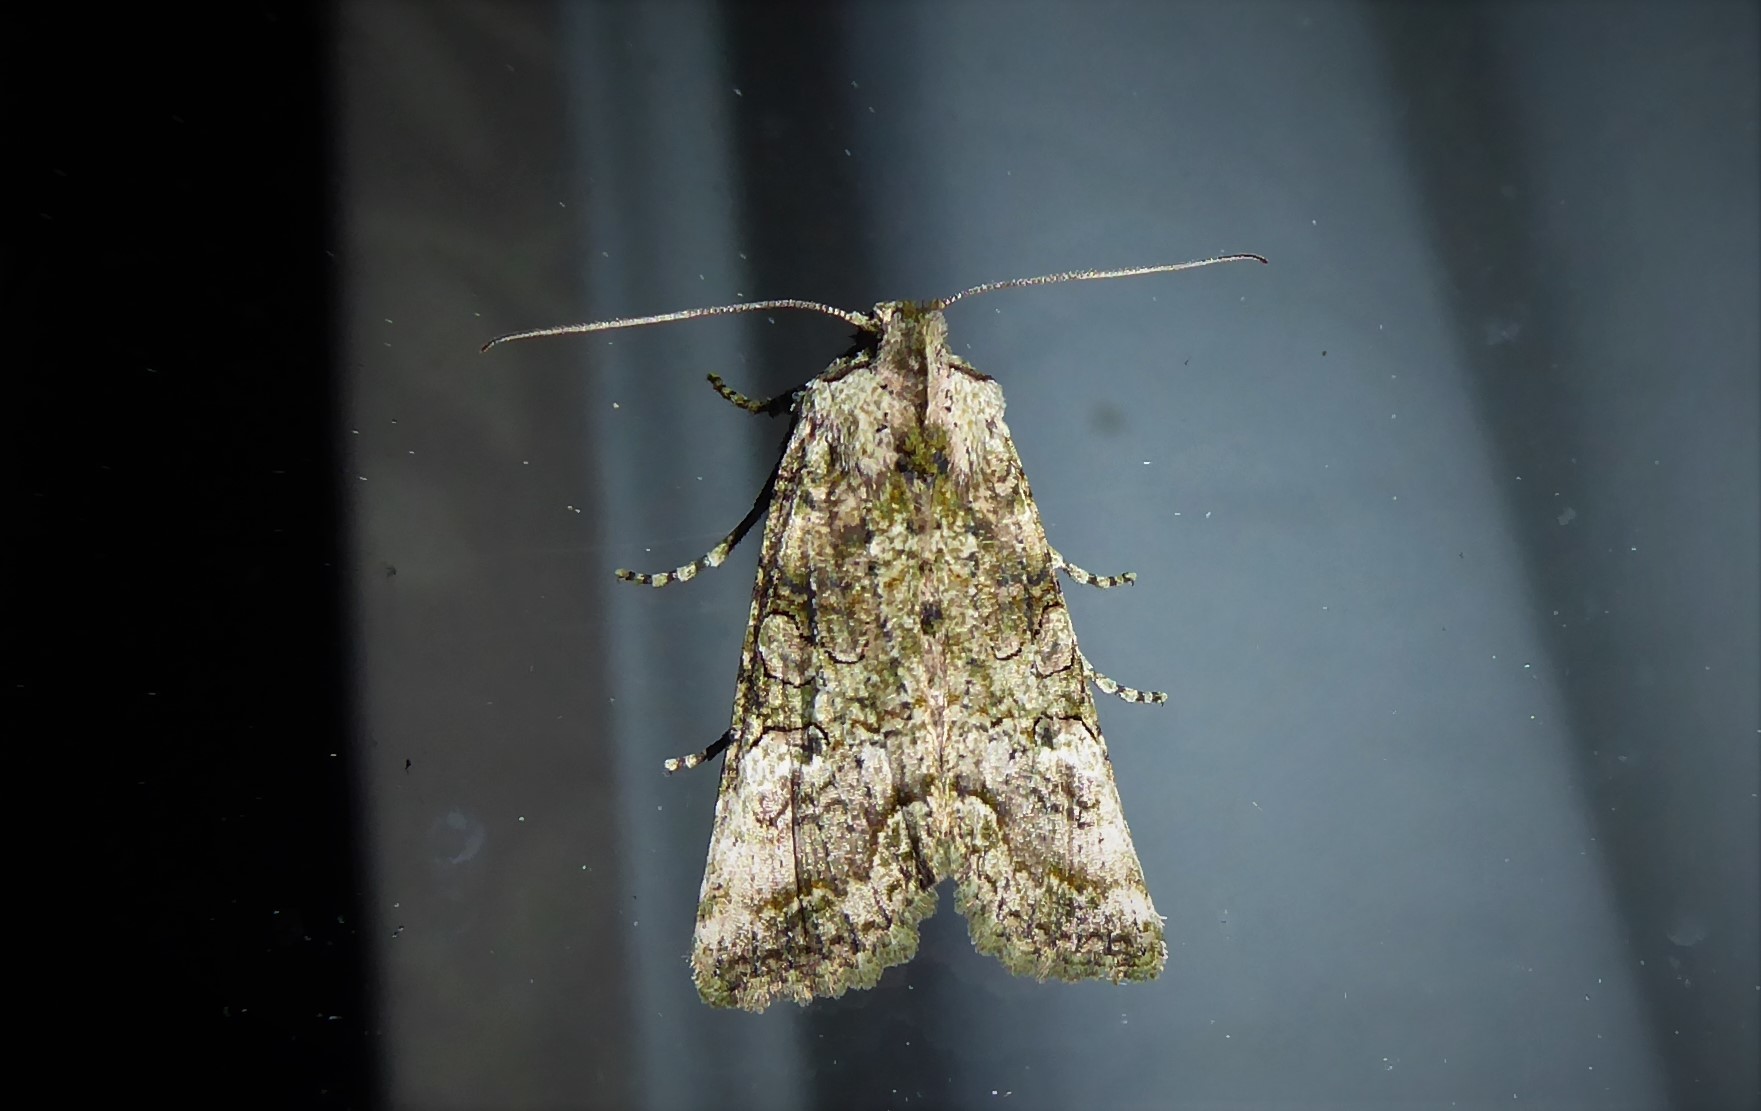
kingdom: Animalia
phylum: Arthropoda
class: Insecta
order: Lepidoptera
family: Noctuidae
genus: Meterana
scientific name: Meterana levis
